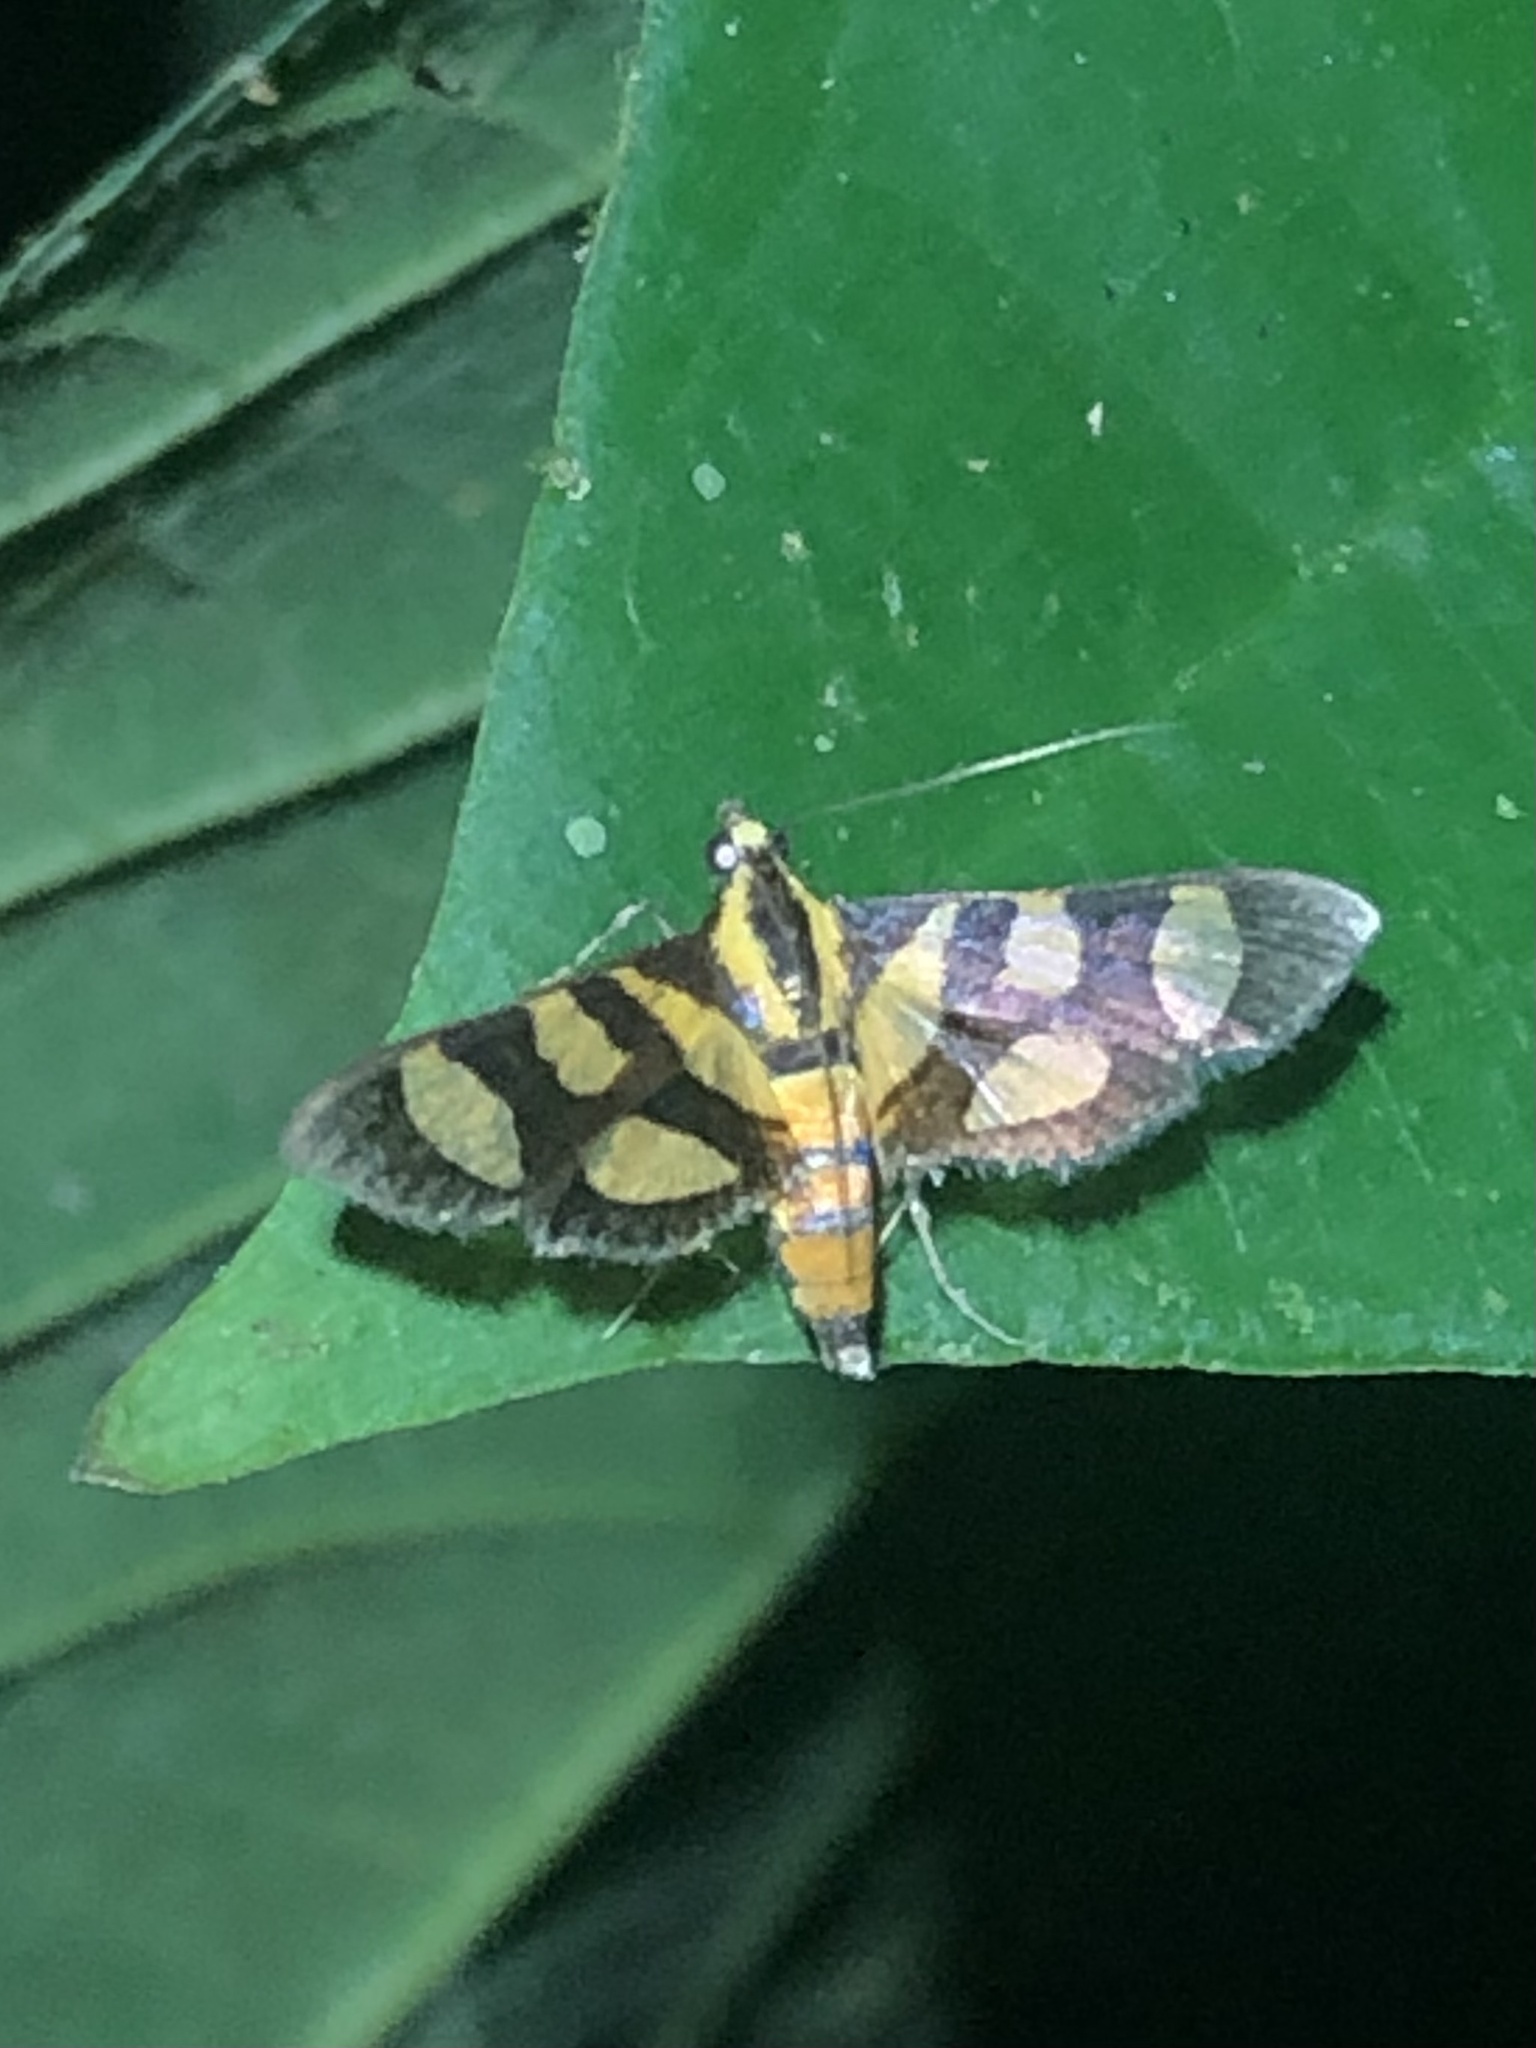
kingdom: Animalia
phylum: Arthropoda
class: Insecta
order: Lepidoptera
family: Crambidae
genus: Syngamia
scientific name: Syngamia florella
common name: Orange-spotted flower moth
